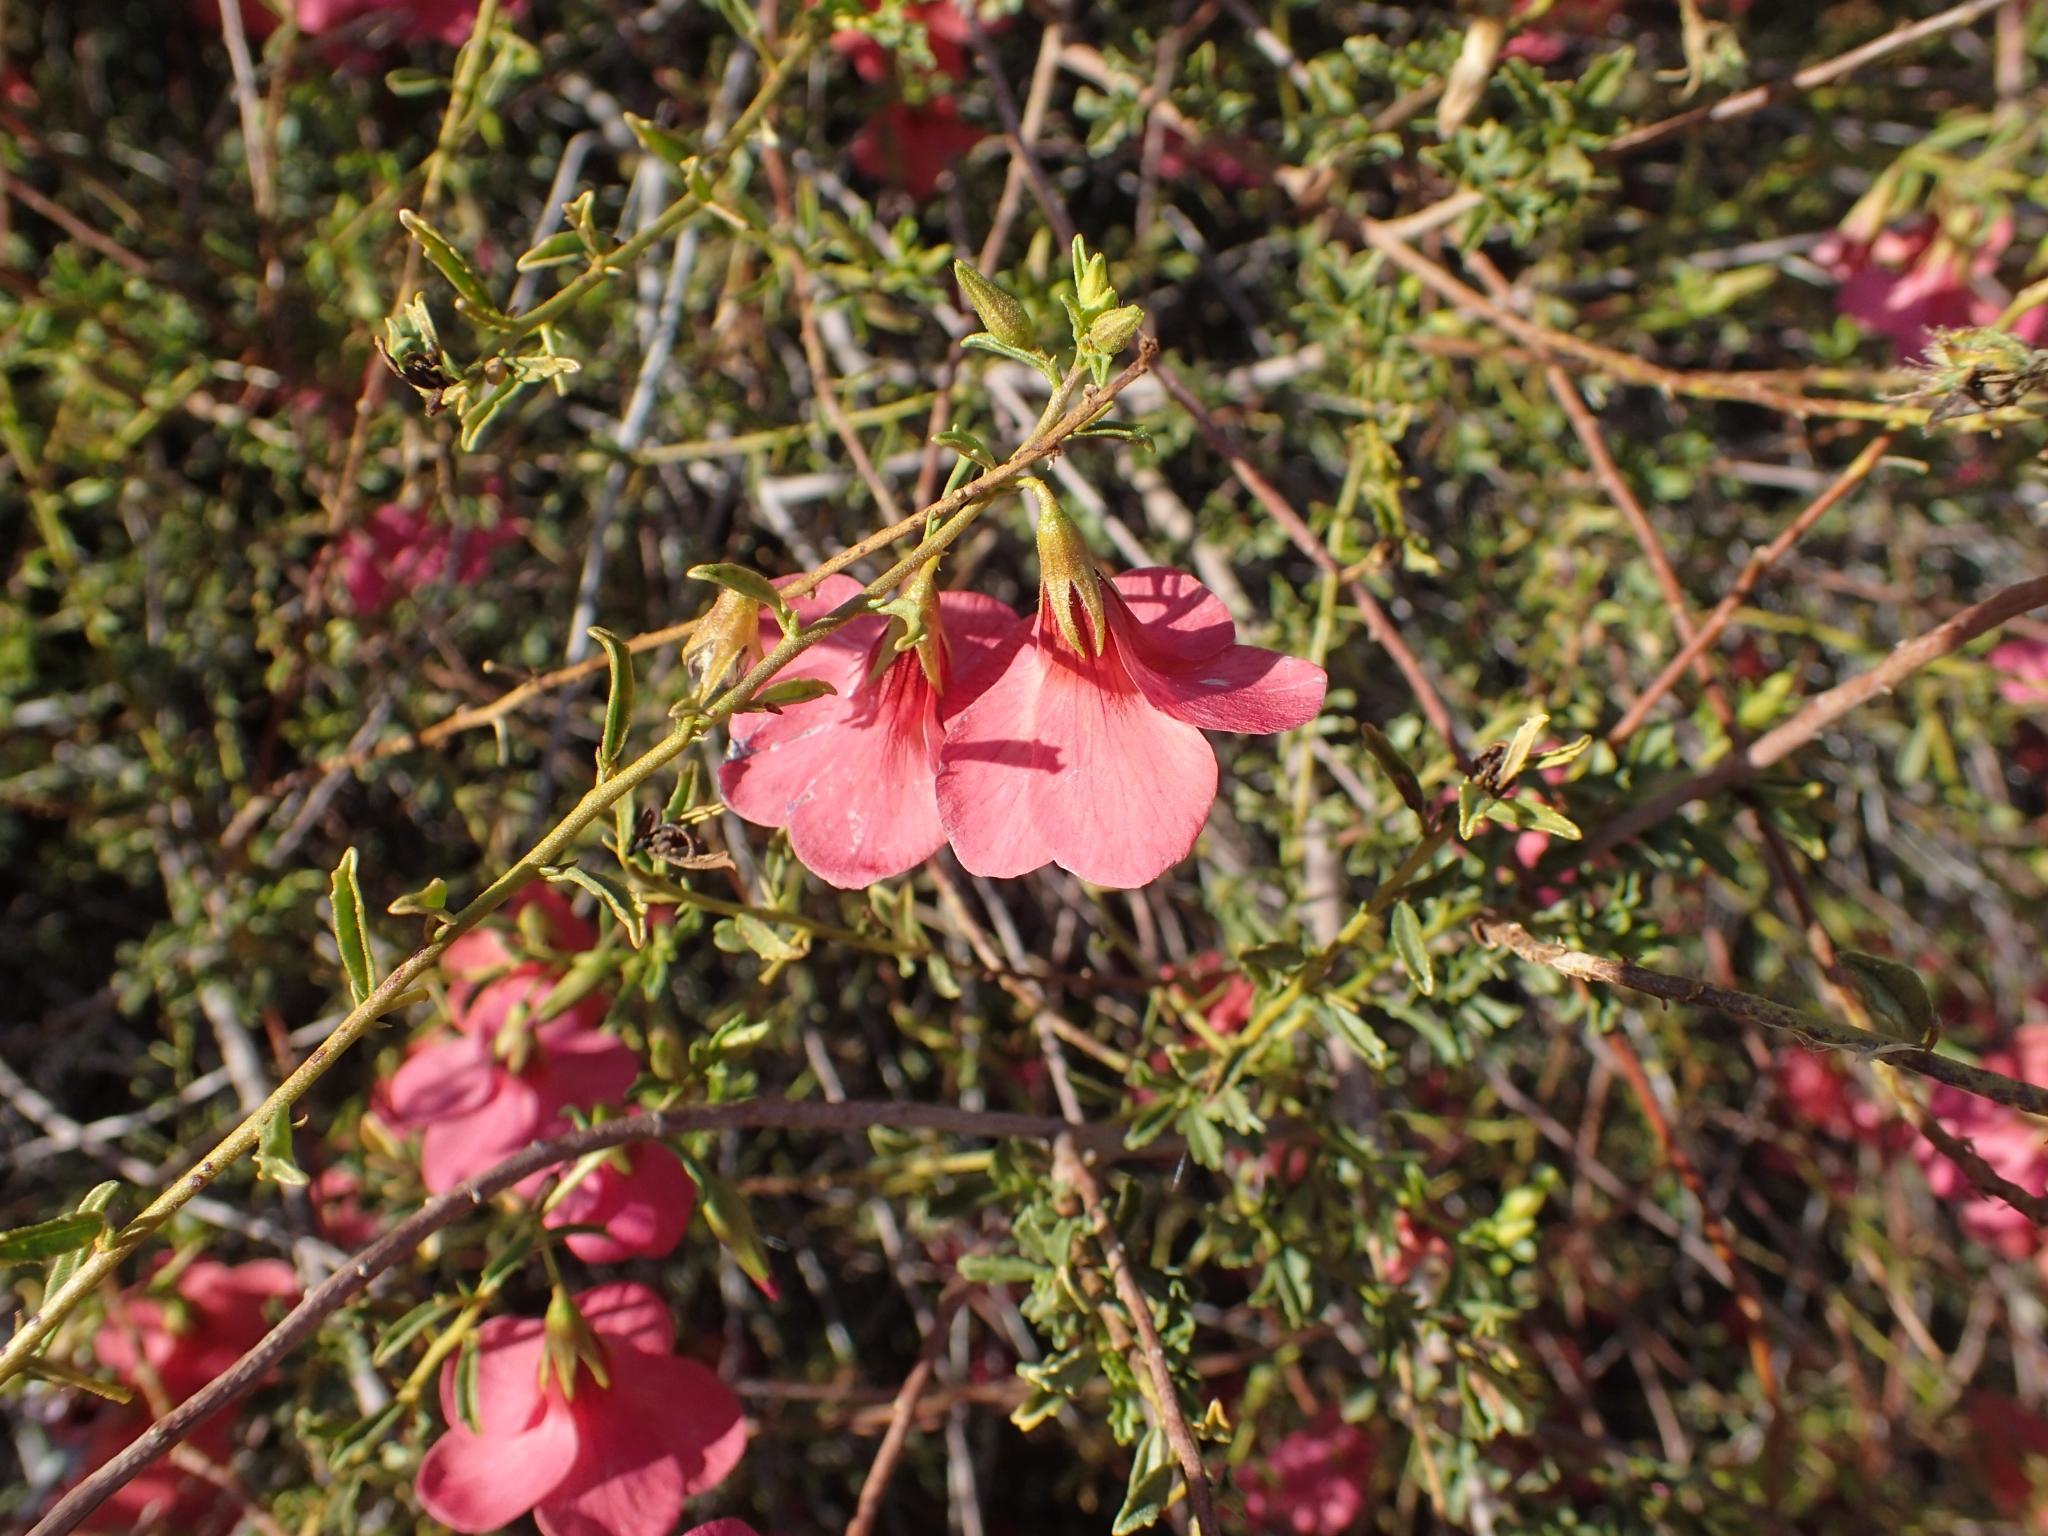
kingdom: Plantae
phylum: Tracheophyta
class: Magnoliopsida
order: Malvales
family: Malvaceae
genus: Hermannia
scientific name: Hermannia stricta
